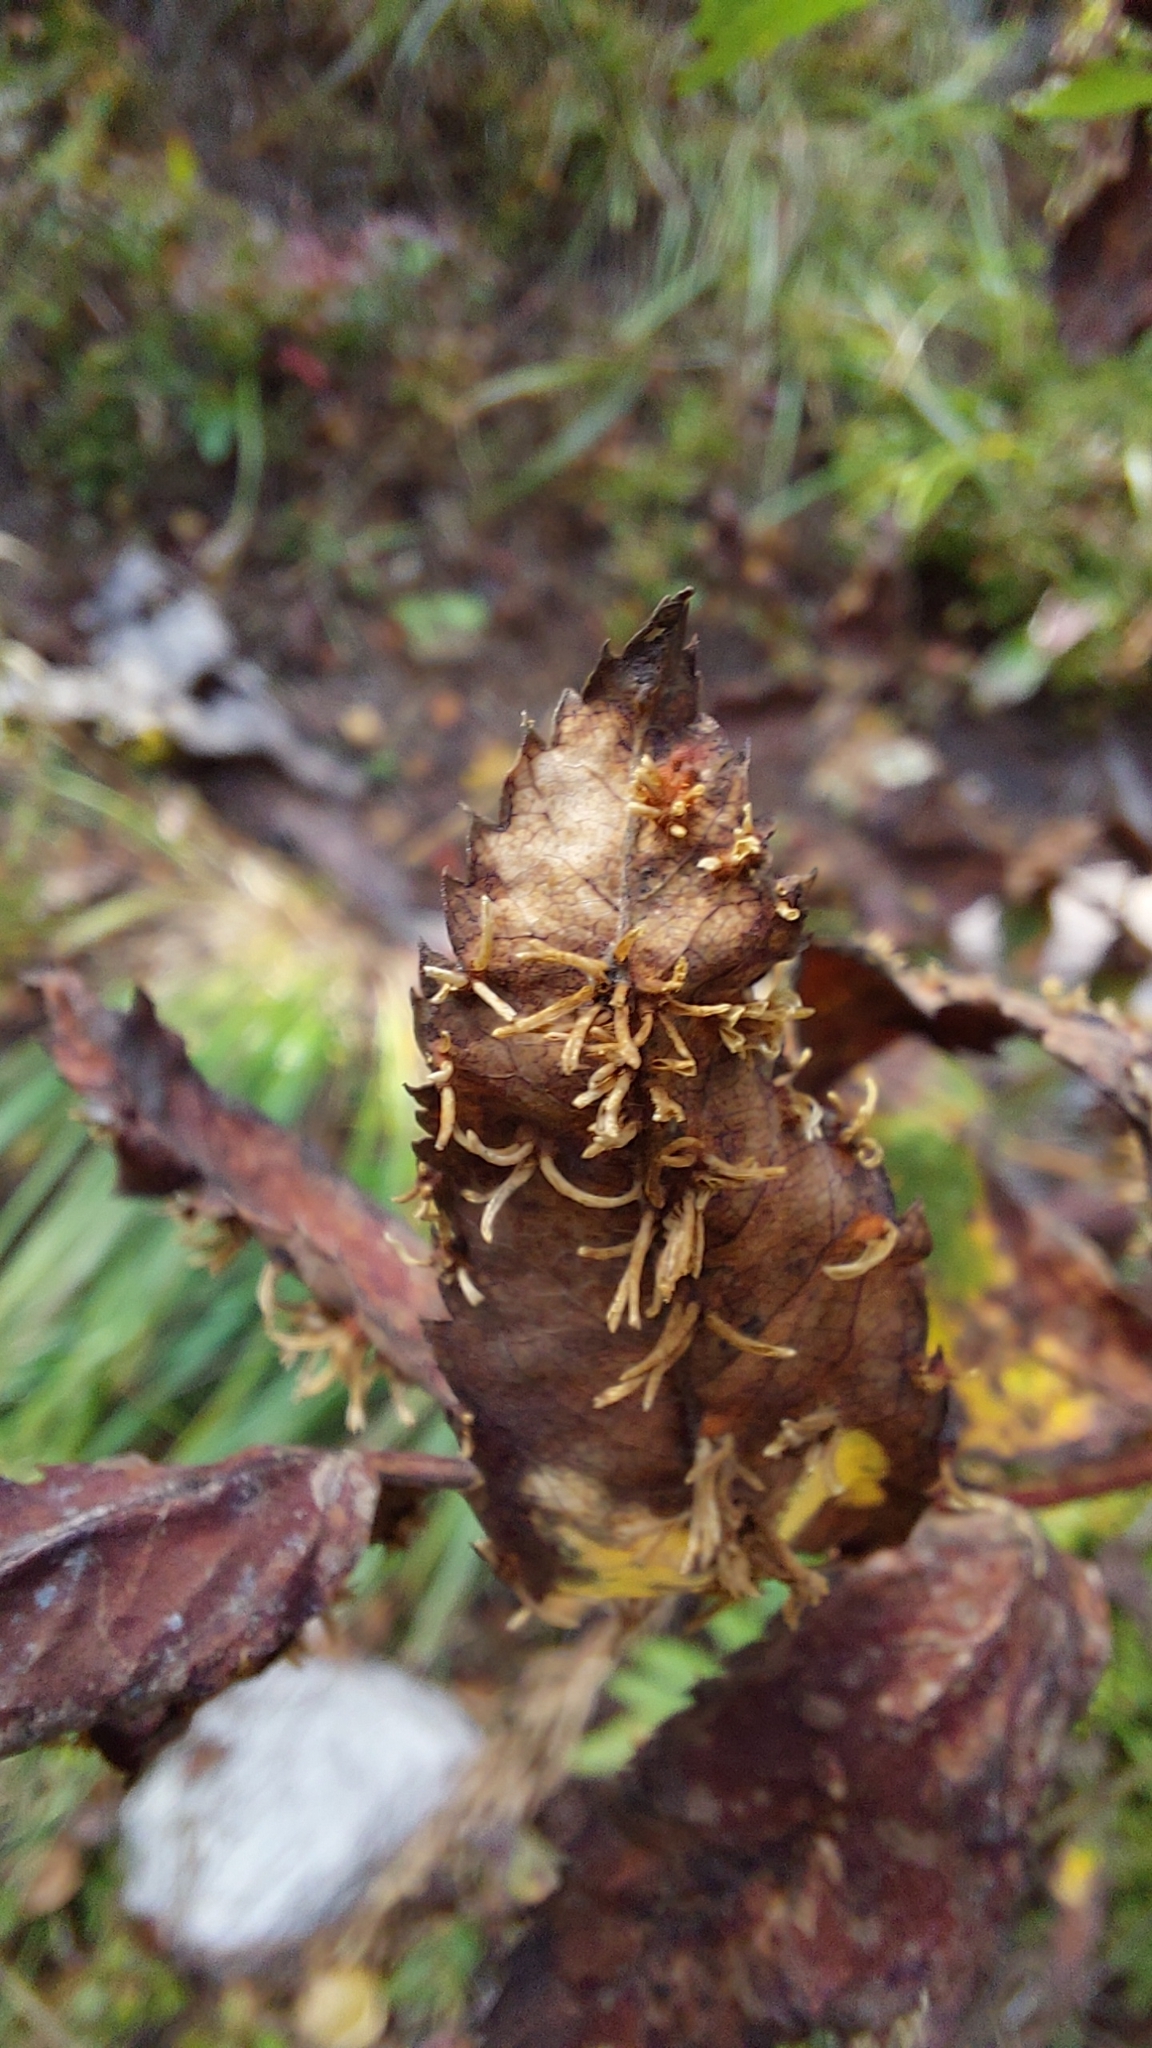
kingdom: Plantae
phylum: Tracheophyta
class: Magnoliopsida
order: Rosales
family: Rosaceae
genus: Rosa
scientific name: Rosa
